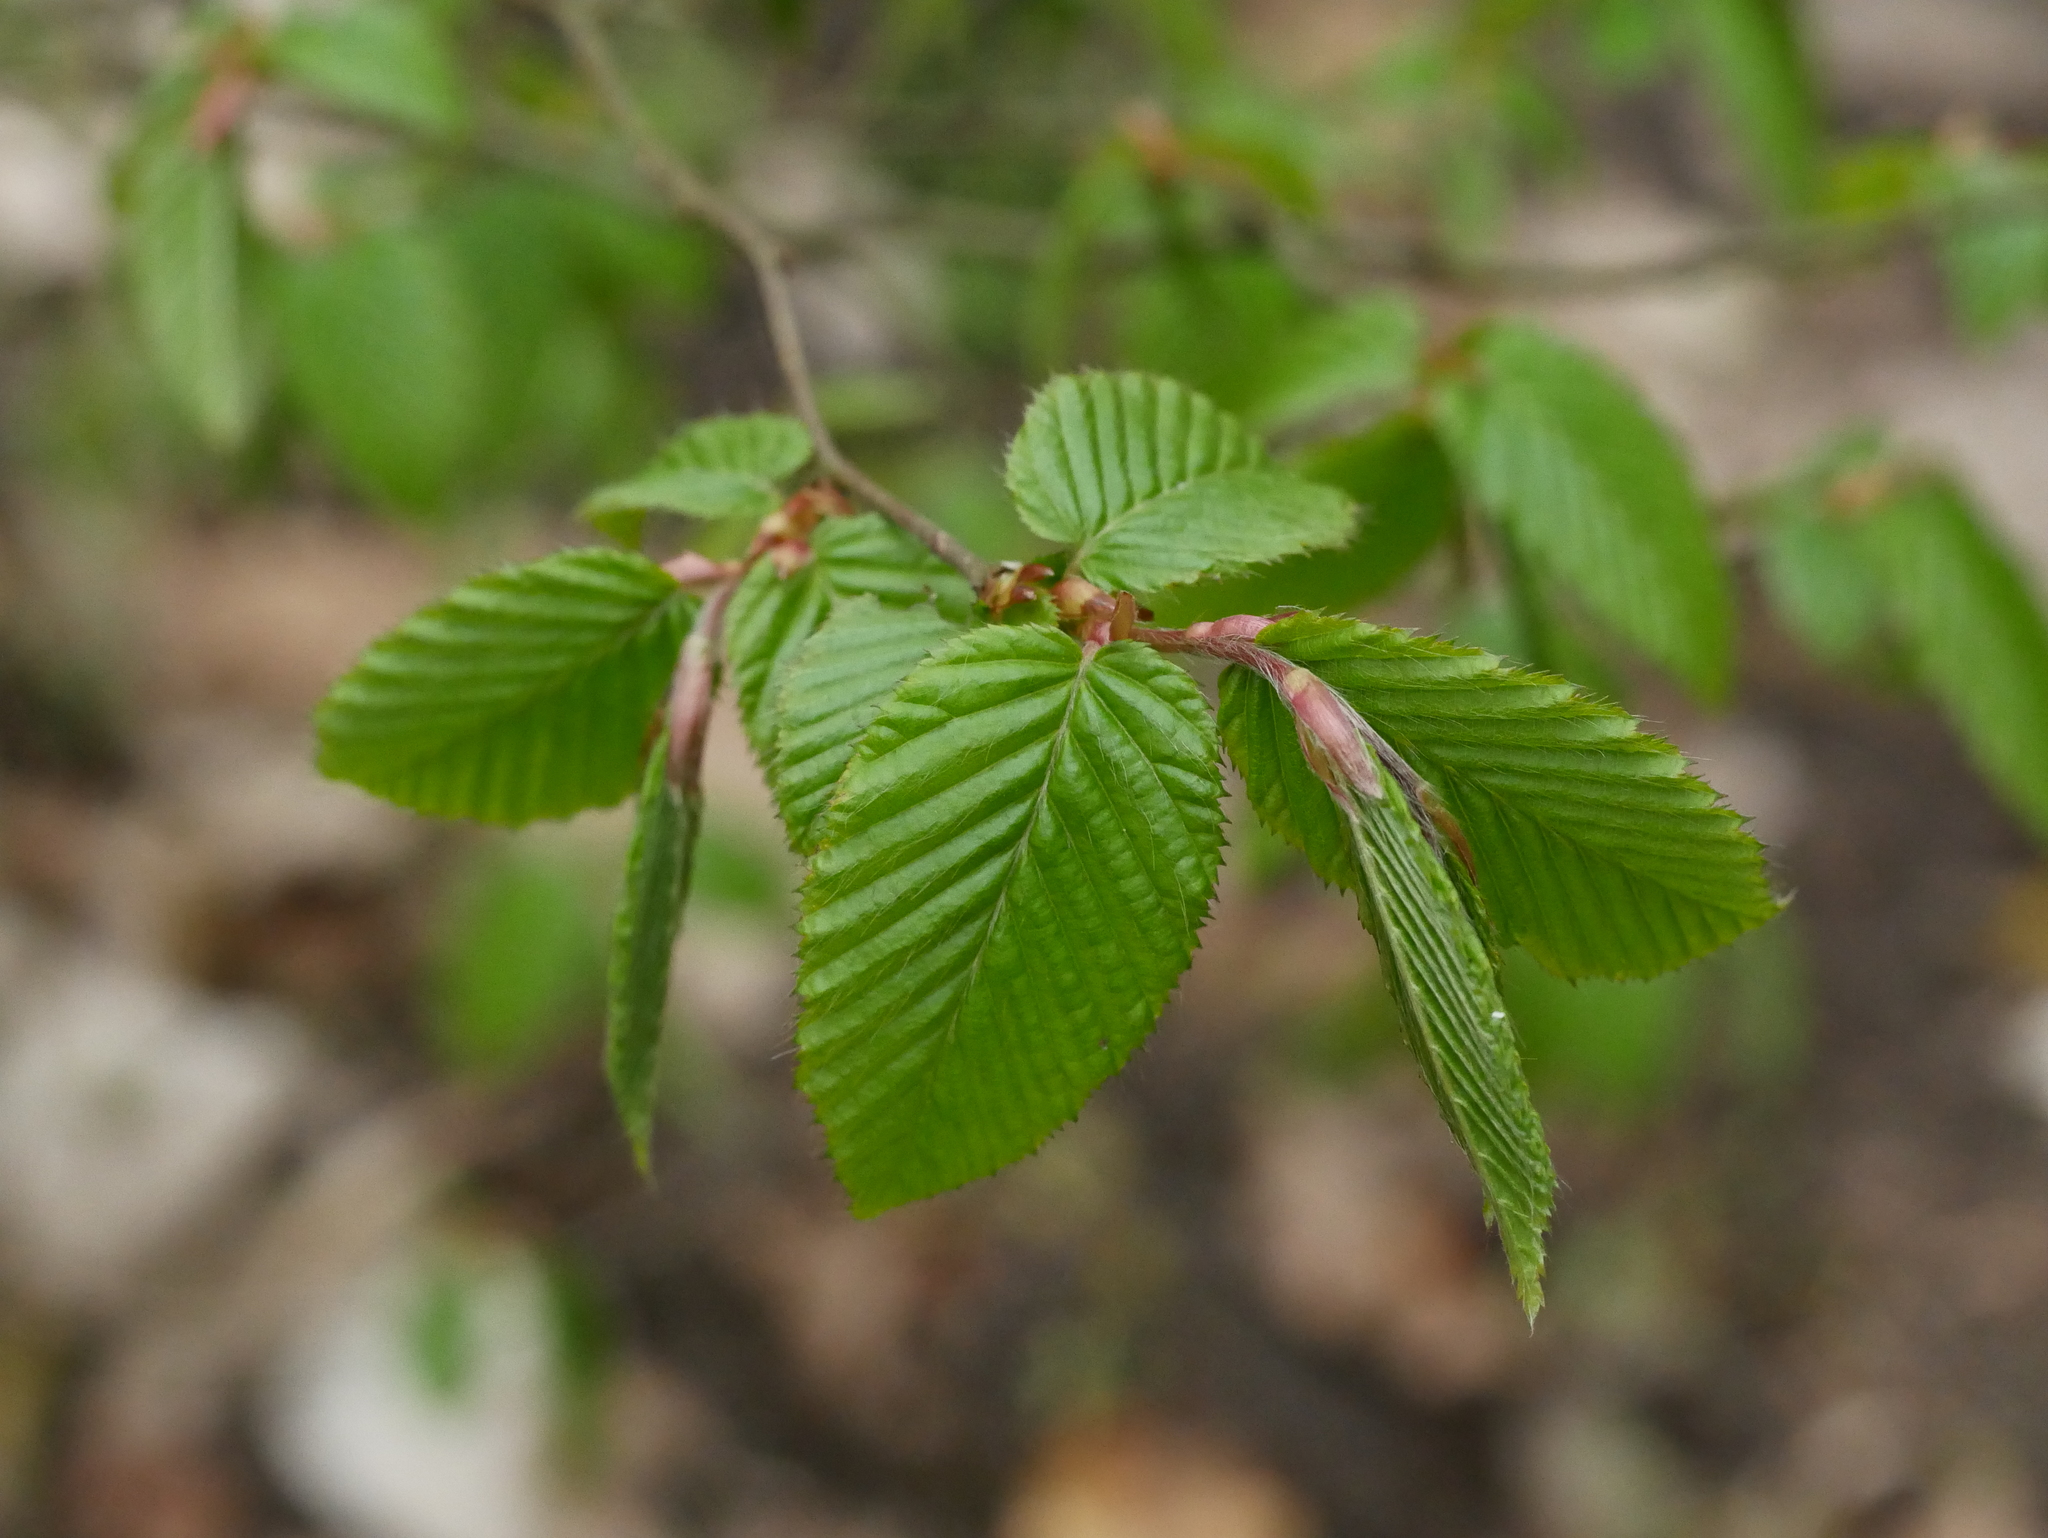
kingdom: Plantae
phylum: Tracheophyta
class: Magnoliopsida
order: Fagales
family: Betulaceae
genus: Carpinus
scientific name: Carpinus betulus
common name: Hornbeam
